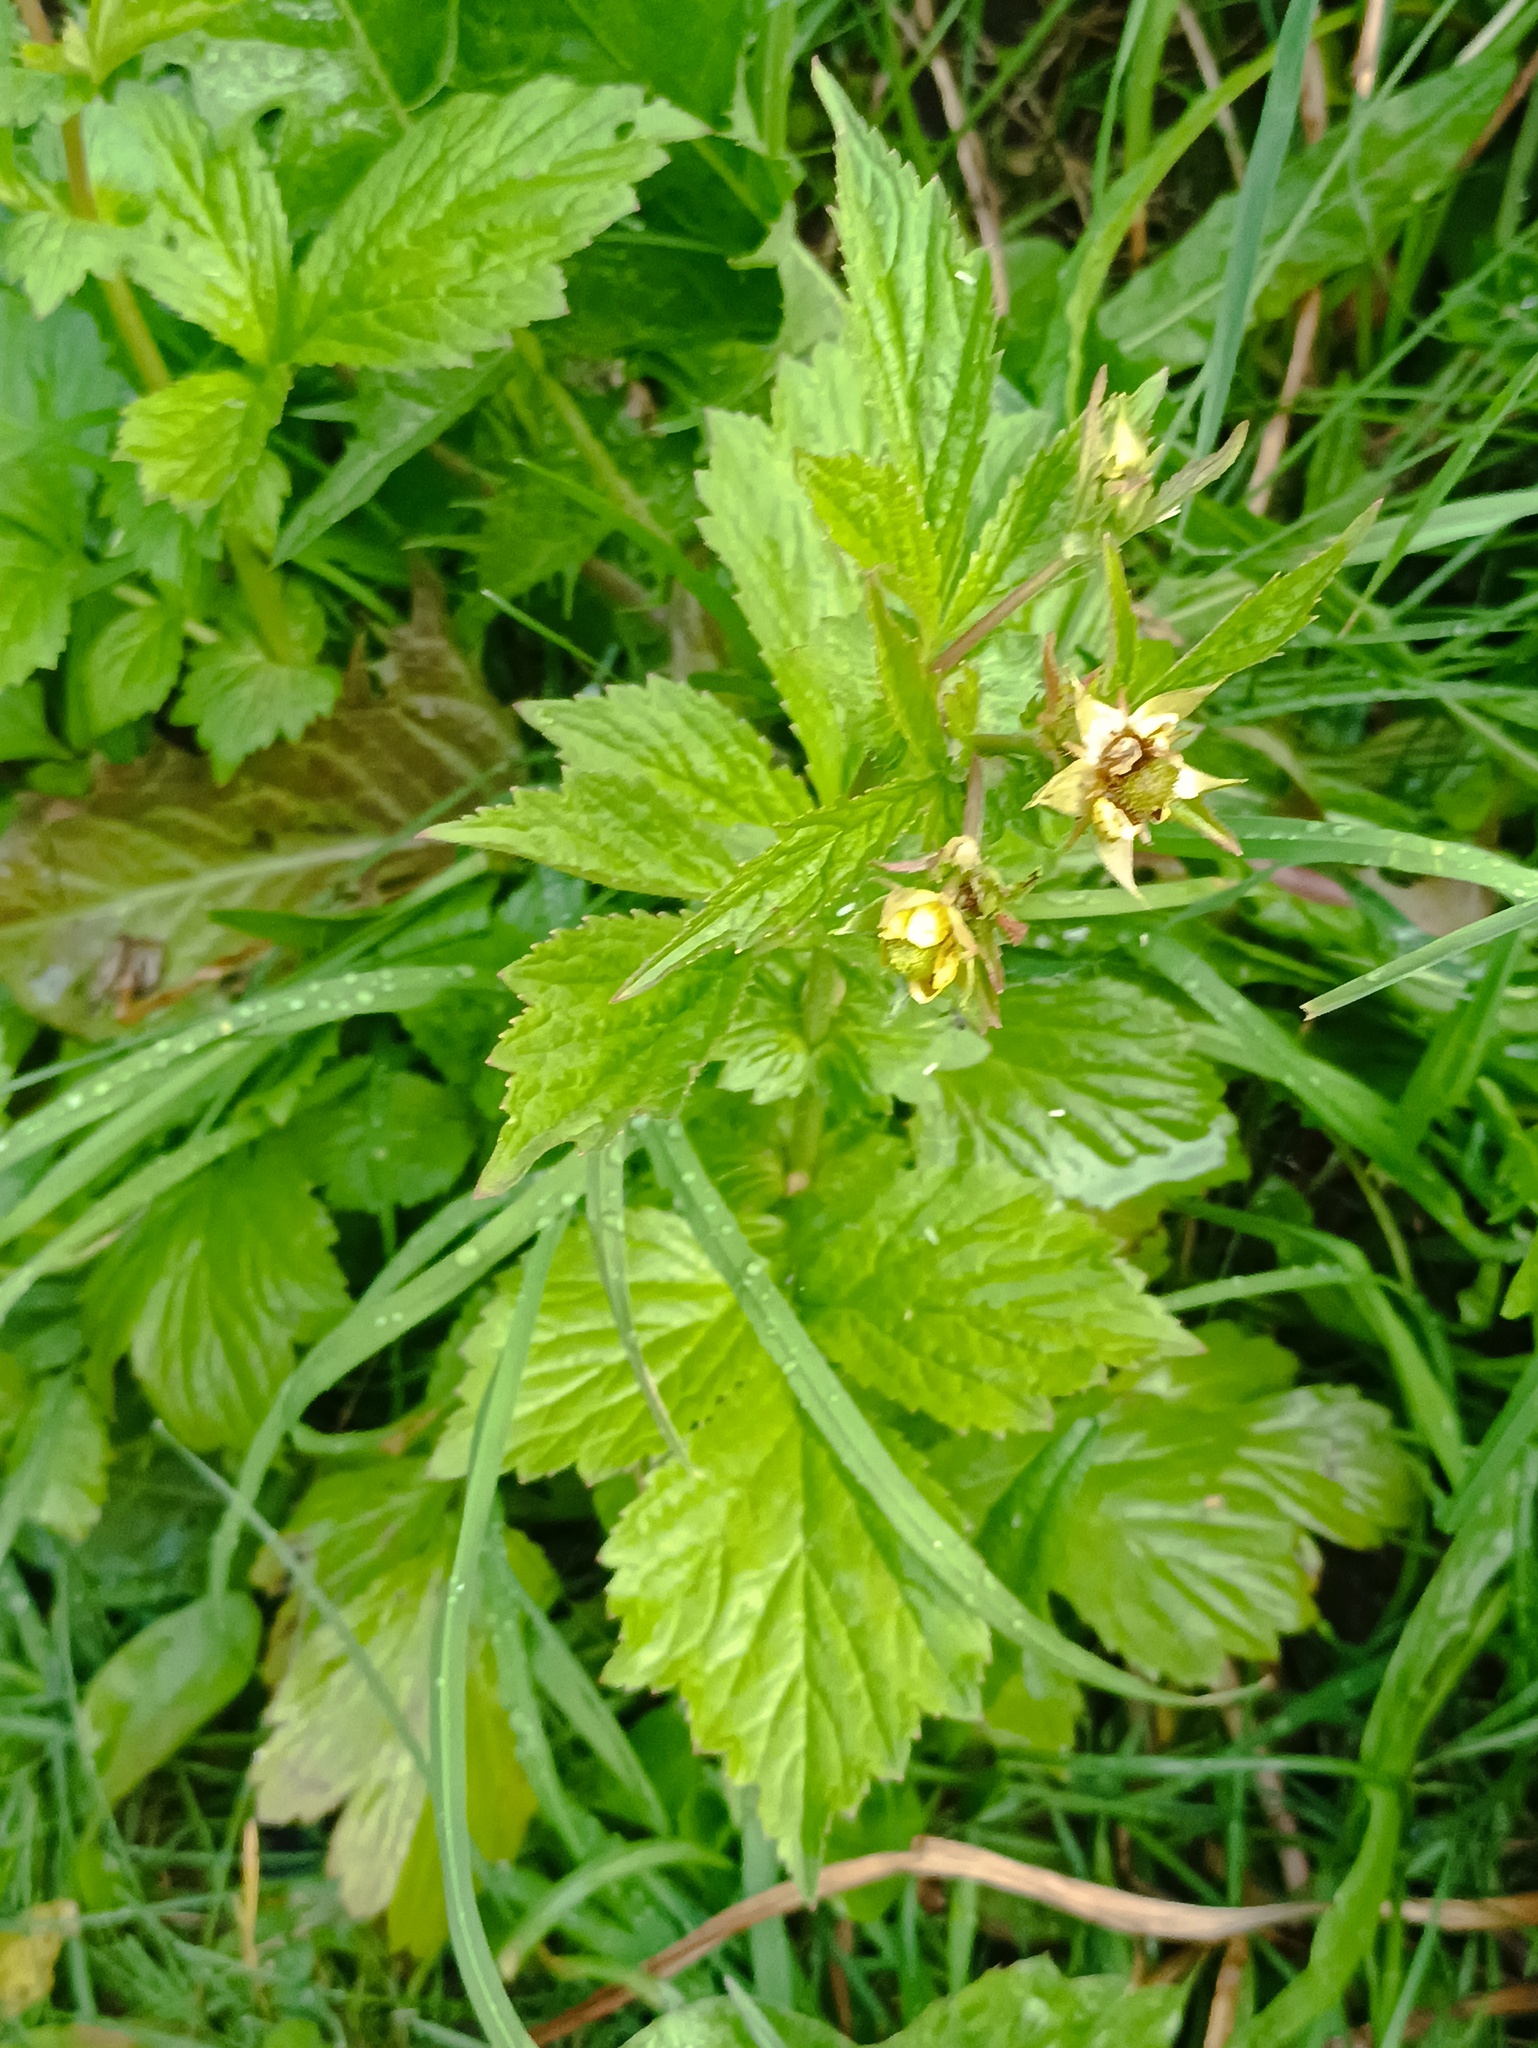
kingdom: Plantae
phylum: Tracheophyta
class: Magnoliopsida
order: Rosales
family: Rosaceae
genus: Geum
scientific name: Geum aleppicum
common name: Yellow avens
